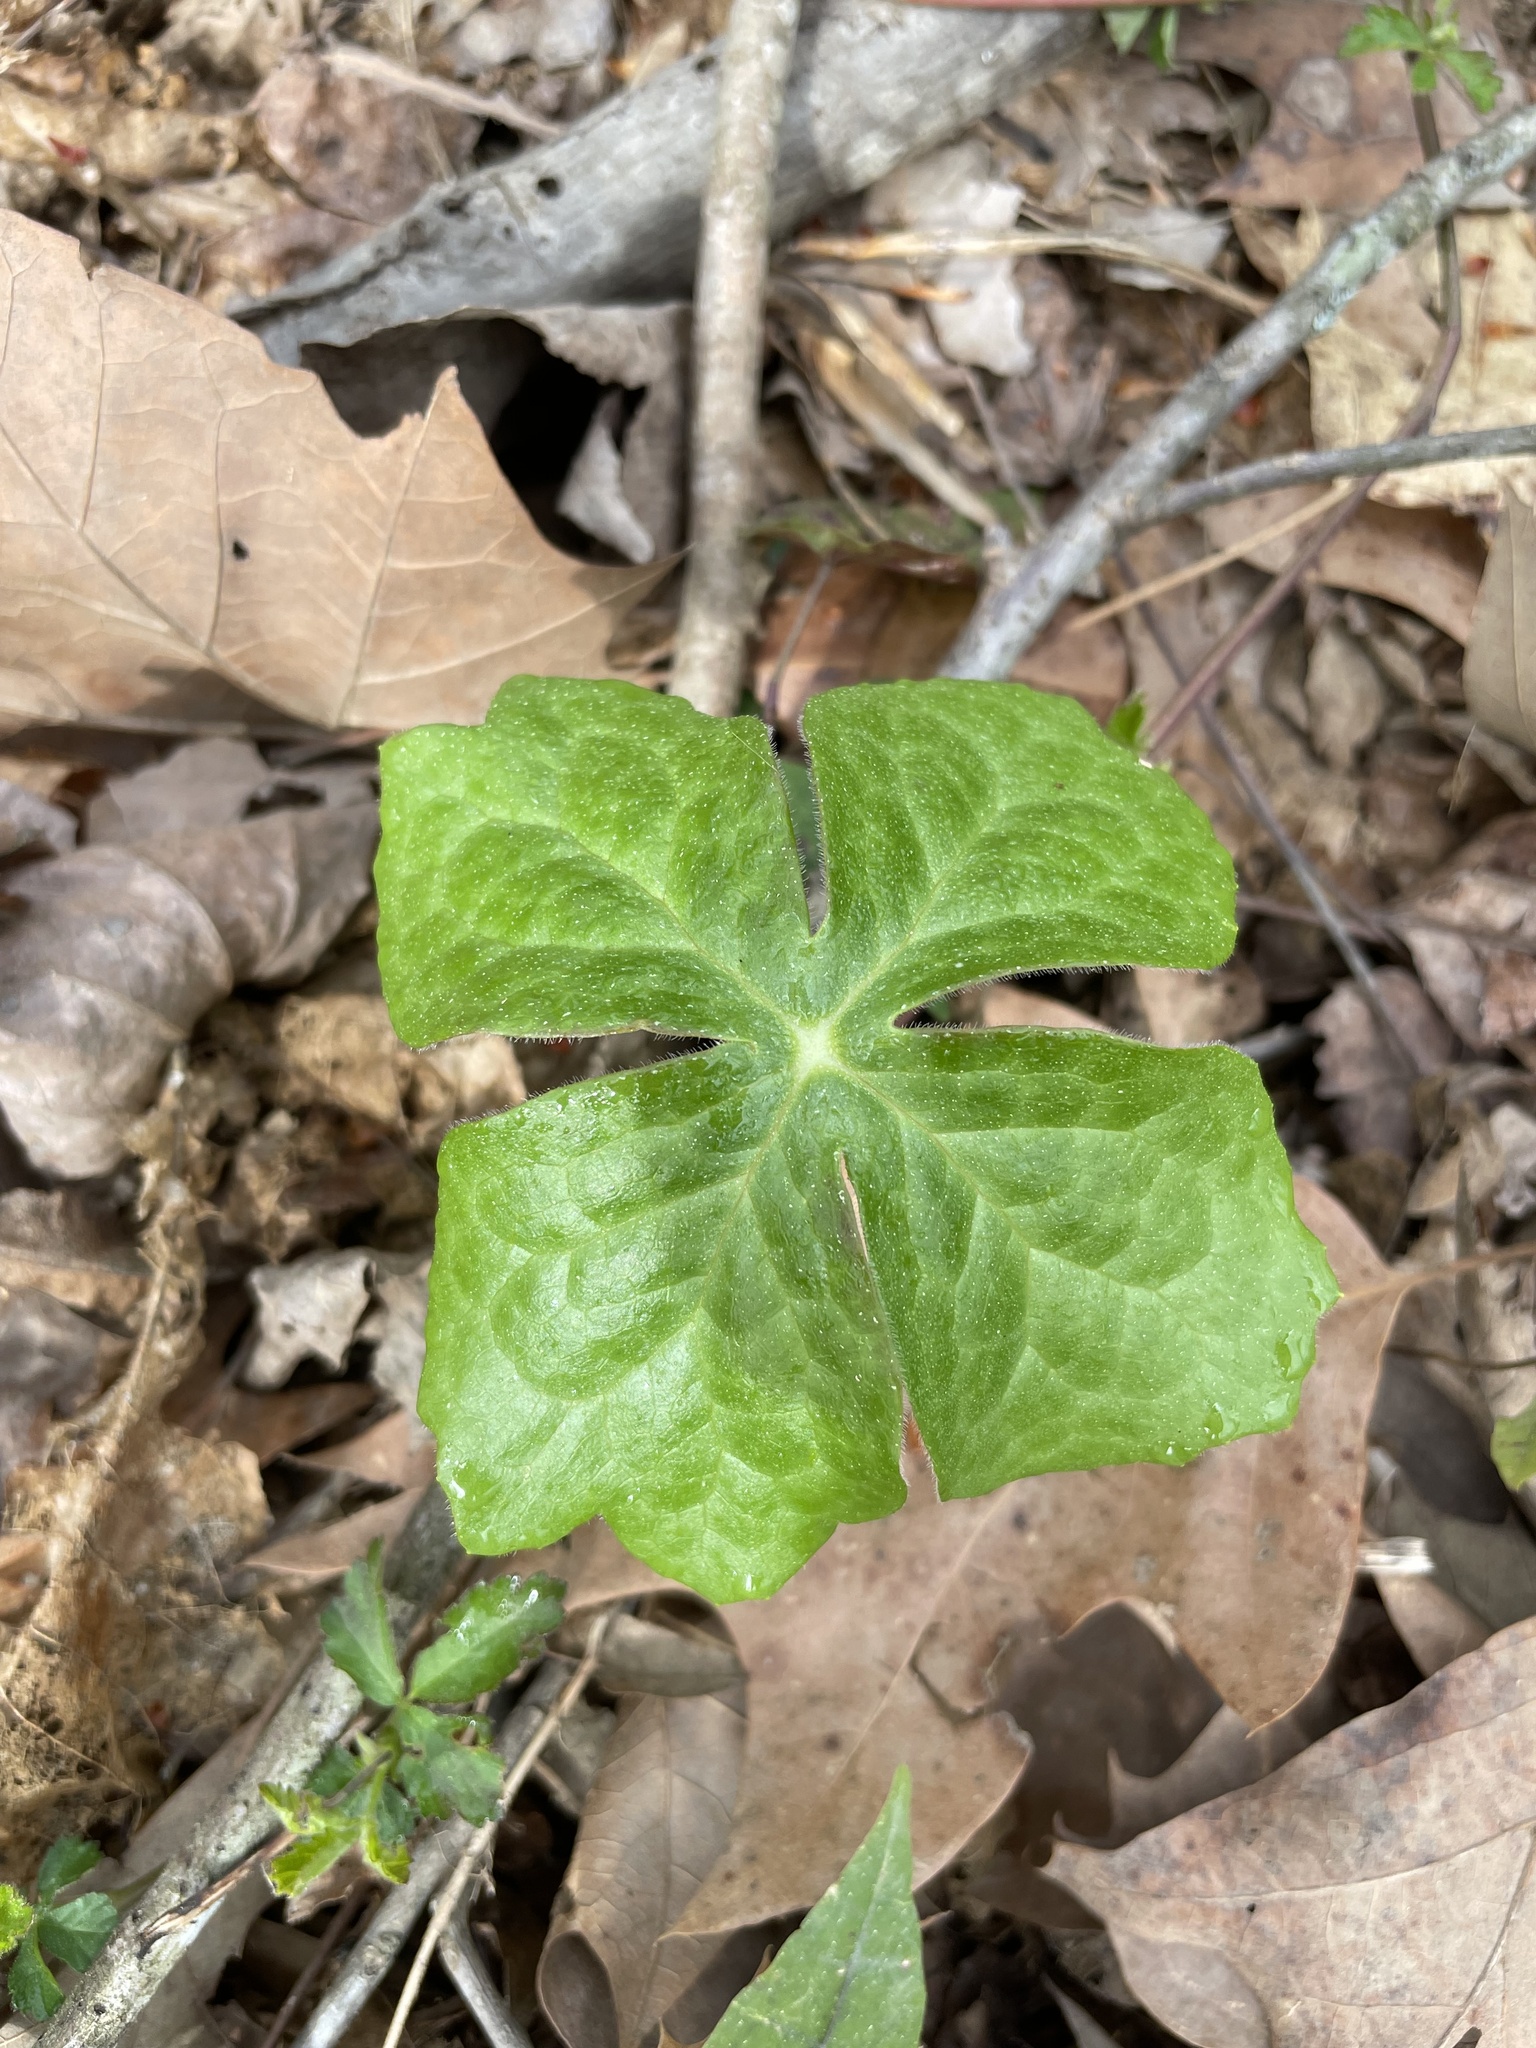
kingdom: Plantae
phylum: Tracheophyta
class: Magnoliopsida
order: Ranunculales
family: Berberidaceae
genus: Podophyllum
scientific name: Podophyllum peltatum
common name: Wild mandrake
